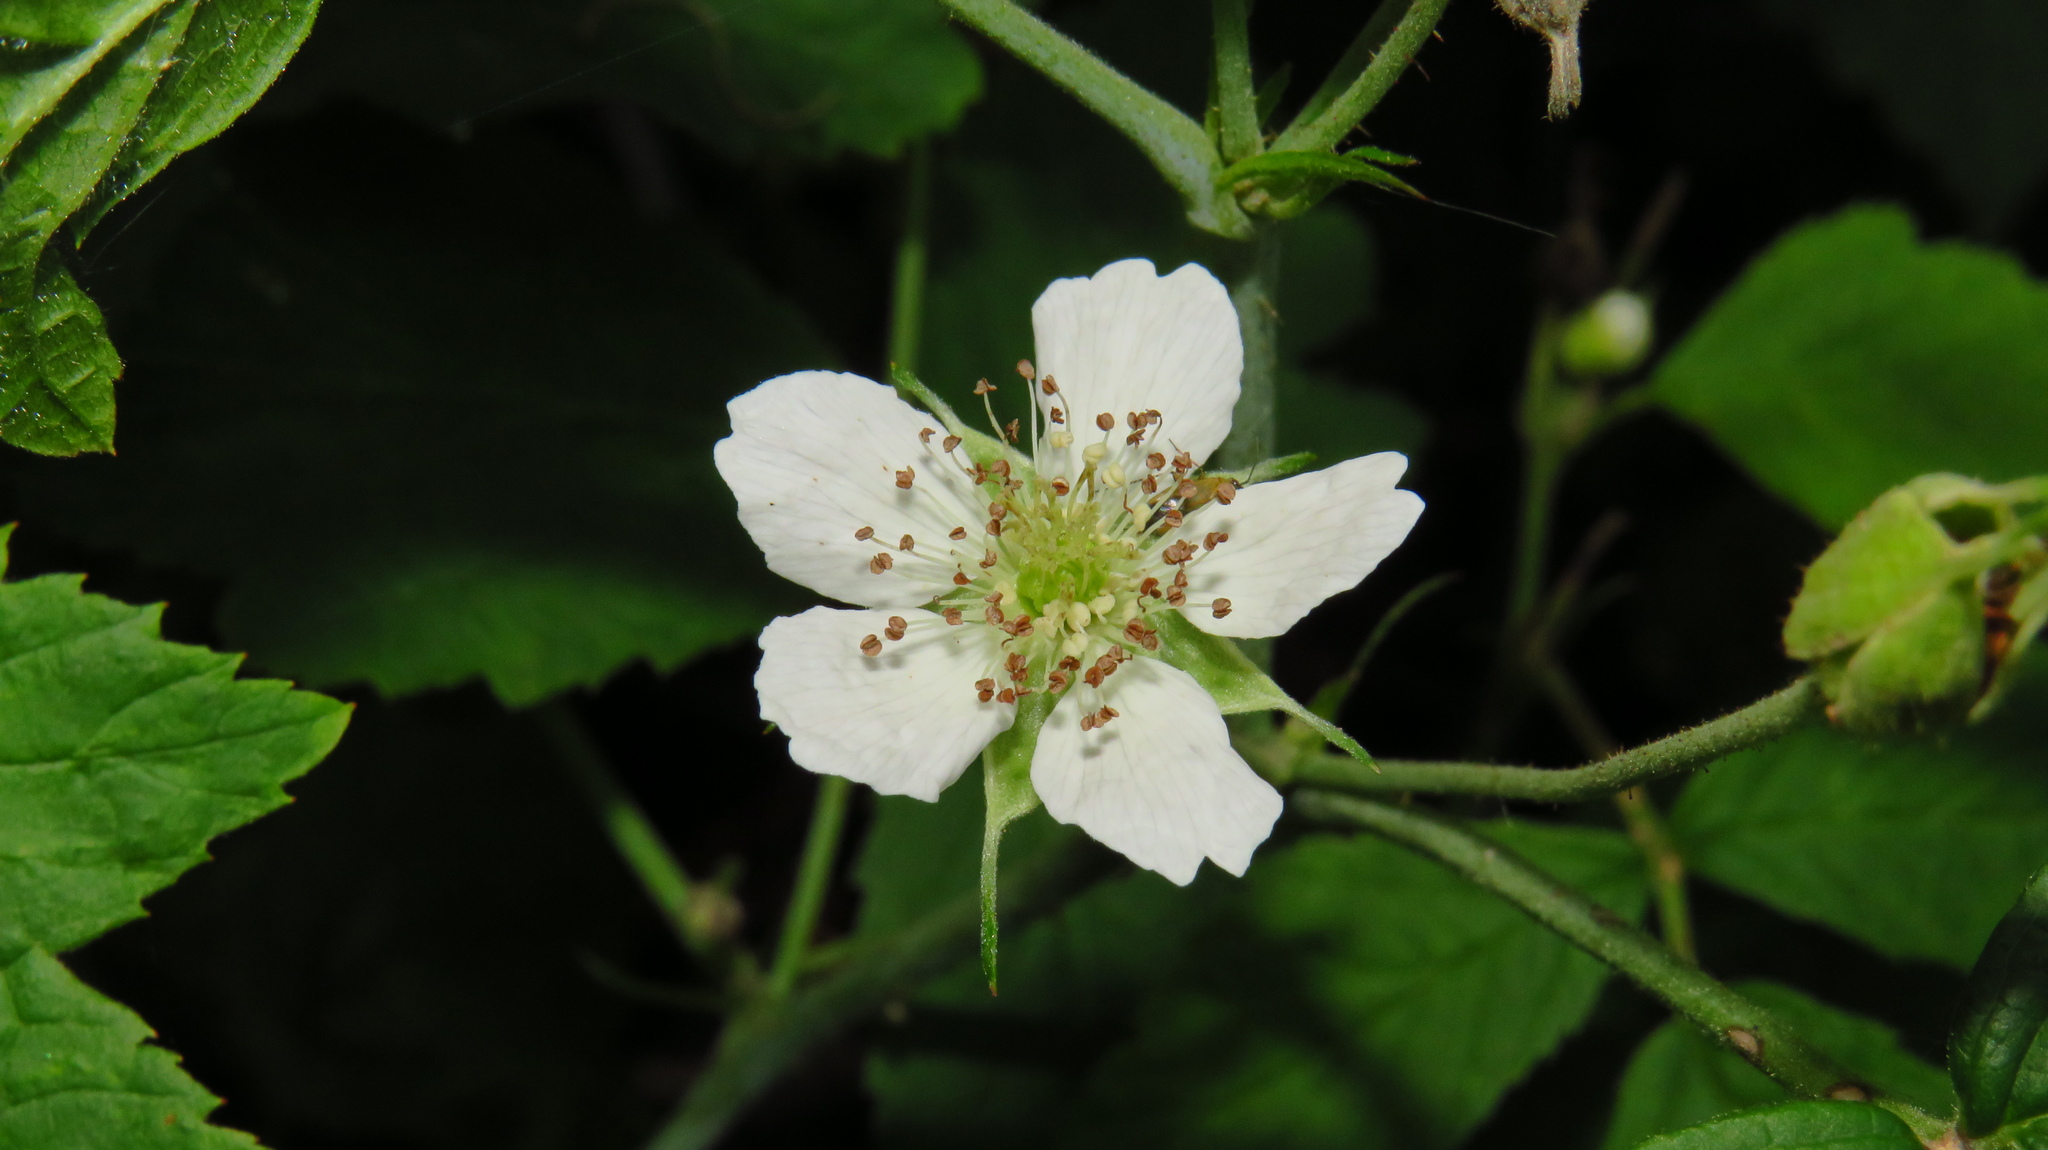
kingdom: Plantae
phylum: Tracheophyta
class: Magnoliopsida
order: Rosales
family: Rosaceae
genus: Rubus
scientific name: Rubus caesius
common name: Dewberry
